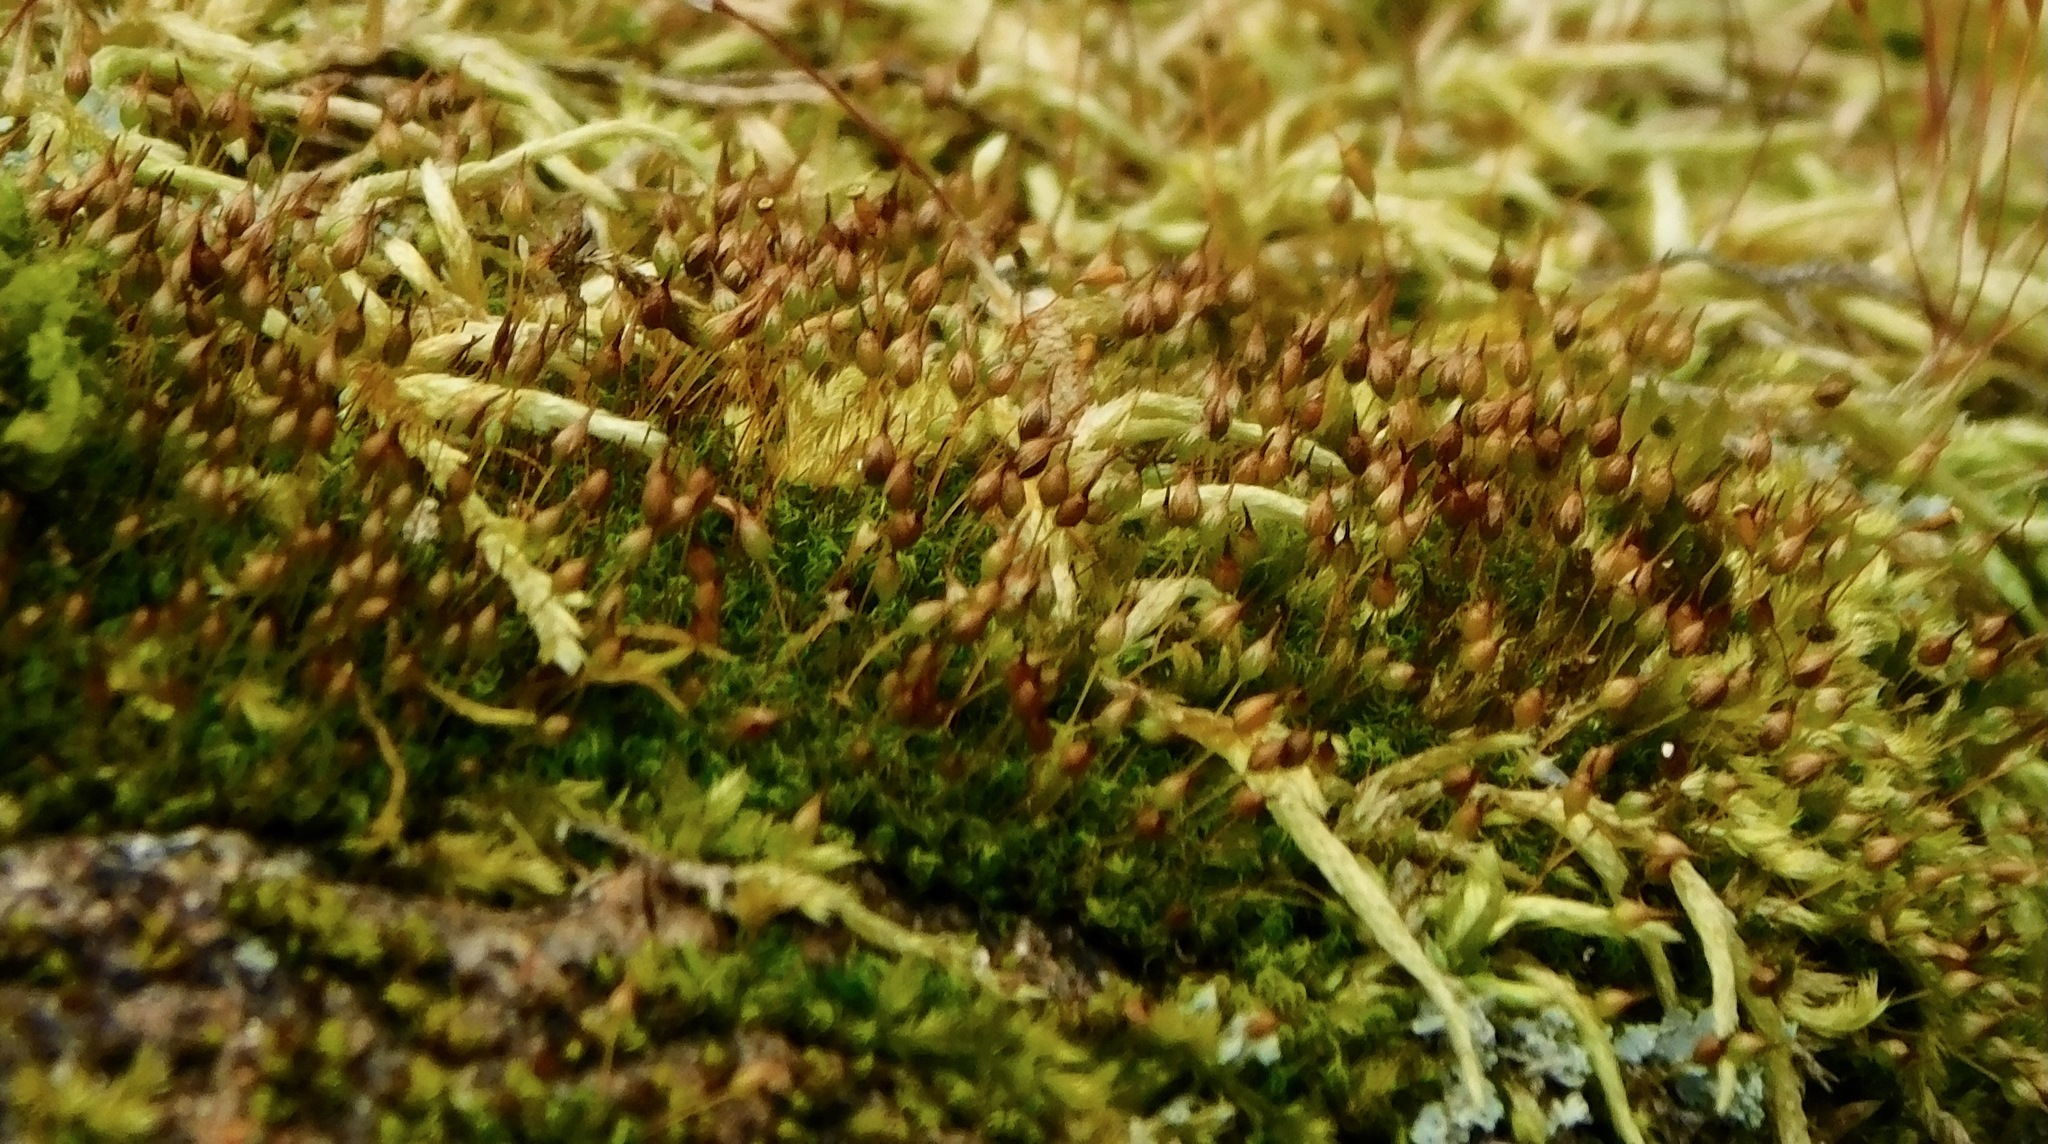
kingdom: Plantae
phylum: Bryophyta
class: Bryopsida
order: Grimmiales
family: Ptychomitriaceae
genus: Ptychomitrium
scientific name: Ptychomitrium incurvum
